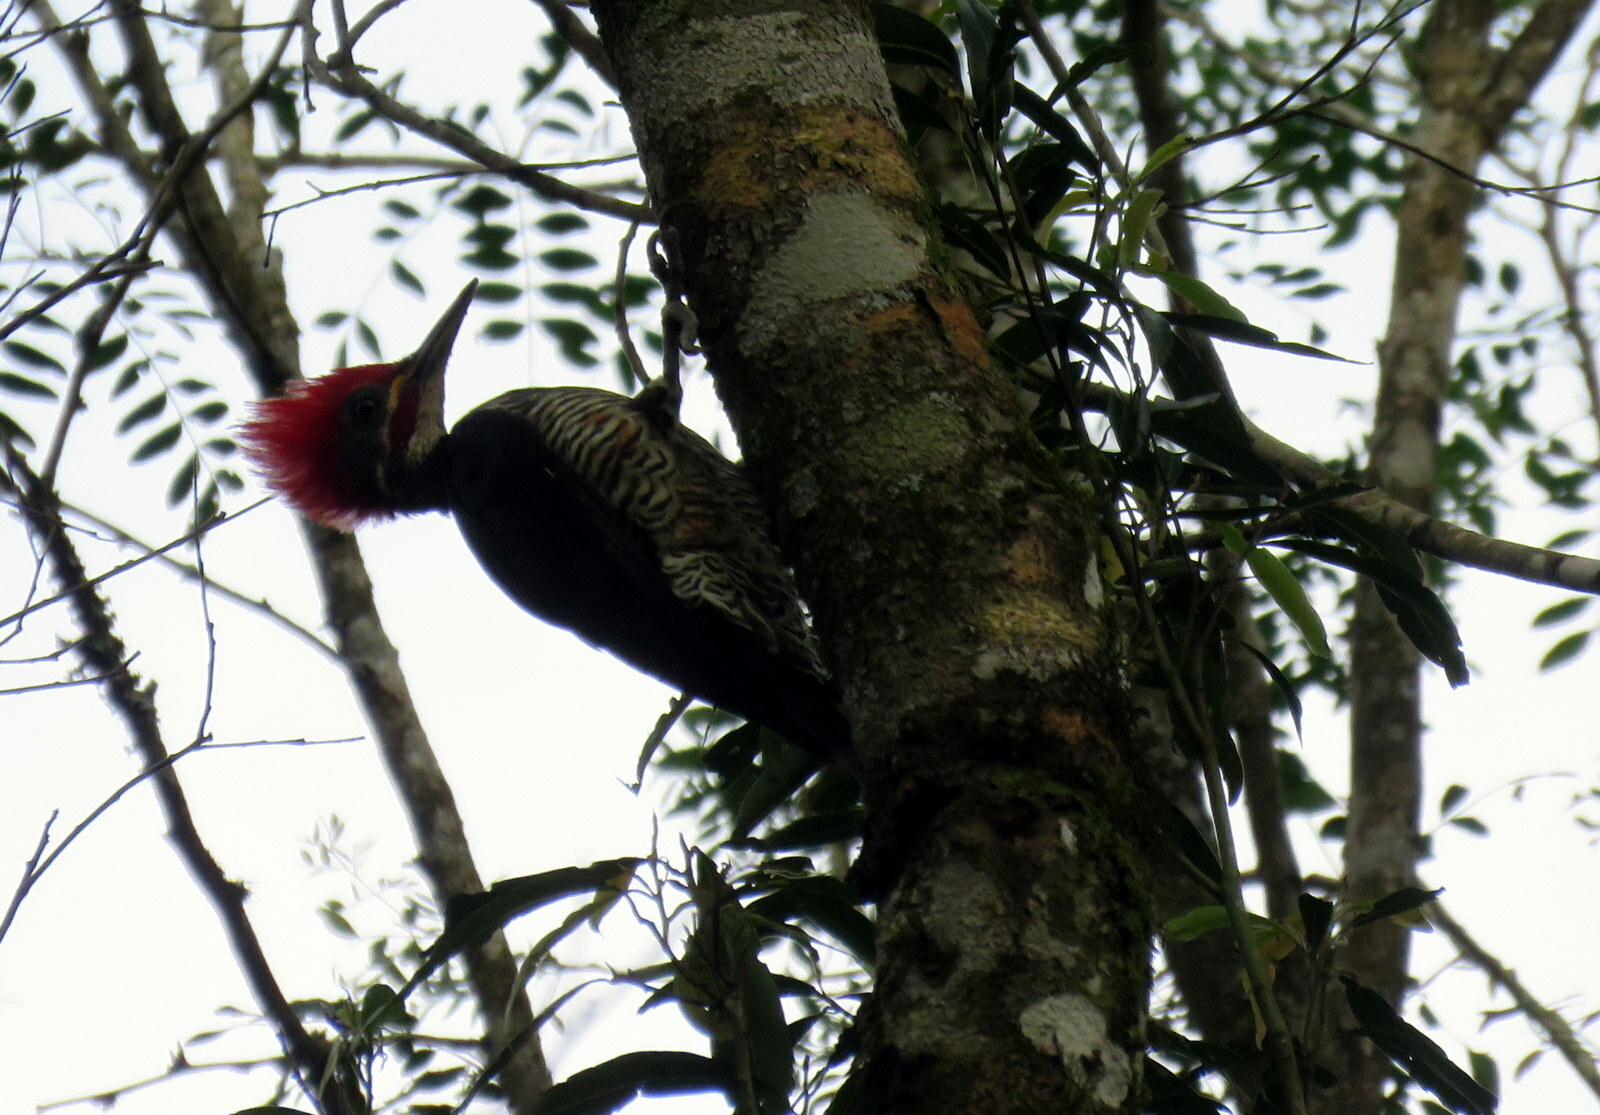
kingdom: Animalia
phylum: Chordata
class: Aves
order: Piciformes
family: Picidae
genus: Dryocopus
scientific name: Dryocopus lineatus
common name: Lineated woodpecker
